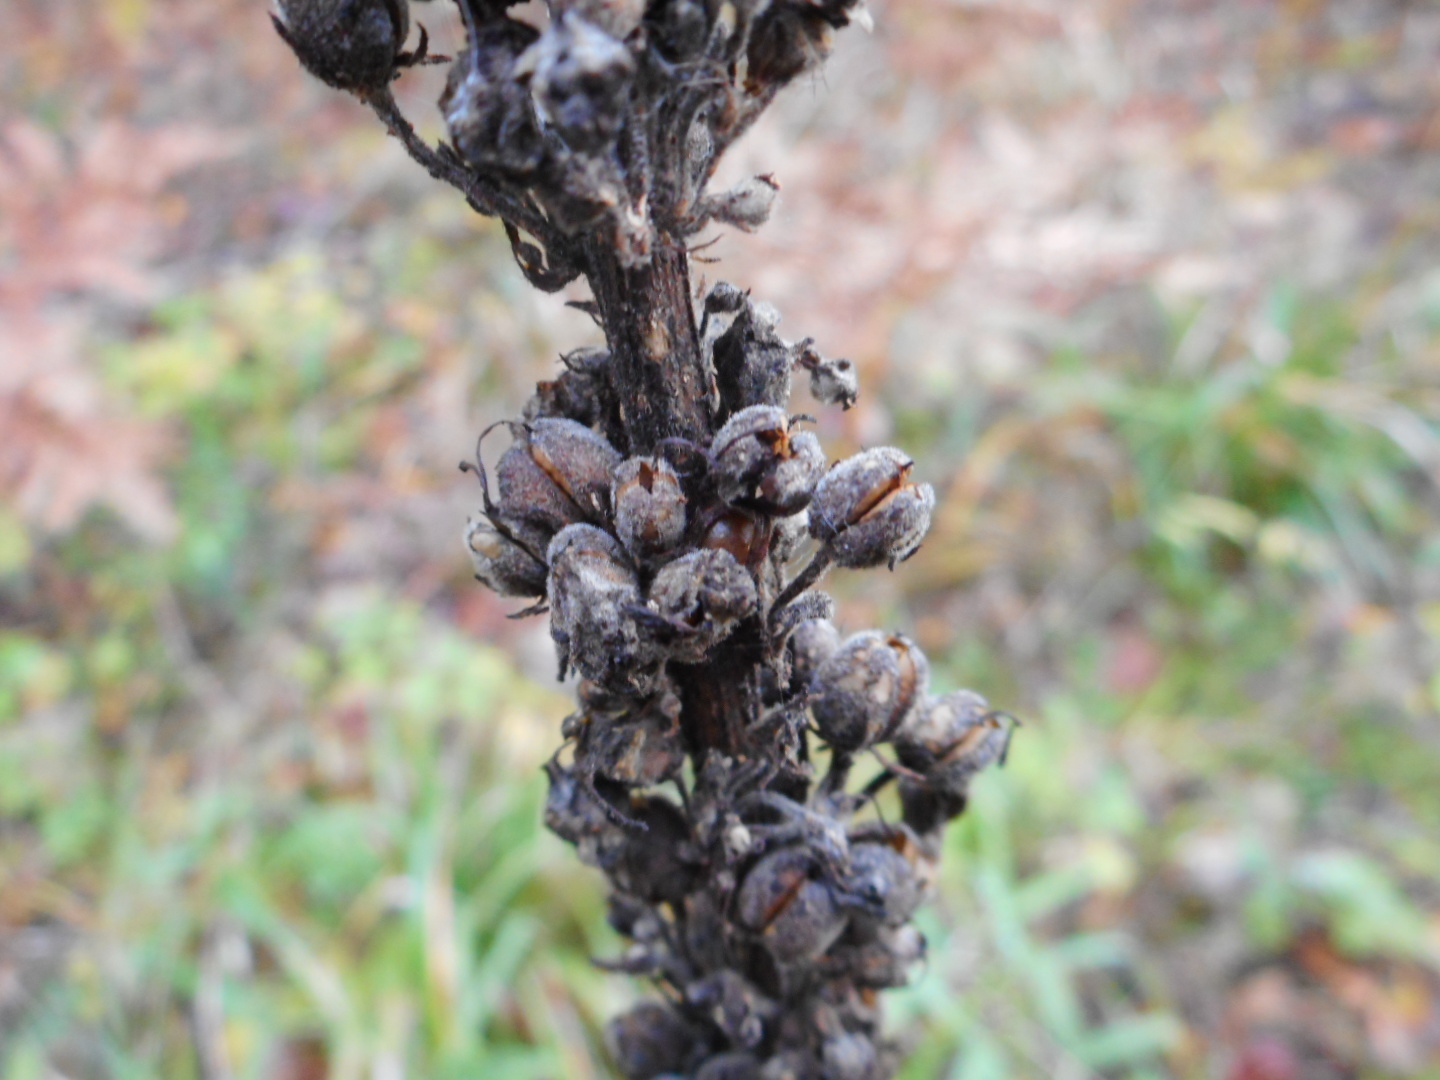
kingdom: Plantae
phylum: Tracheophyta
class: Magnoliopsida
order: Lamiales
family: Scrophulariaceae
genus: Verbascum
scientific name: Verbascum nigrum
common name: Dark mullein
